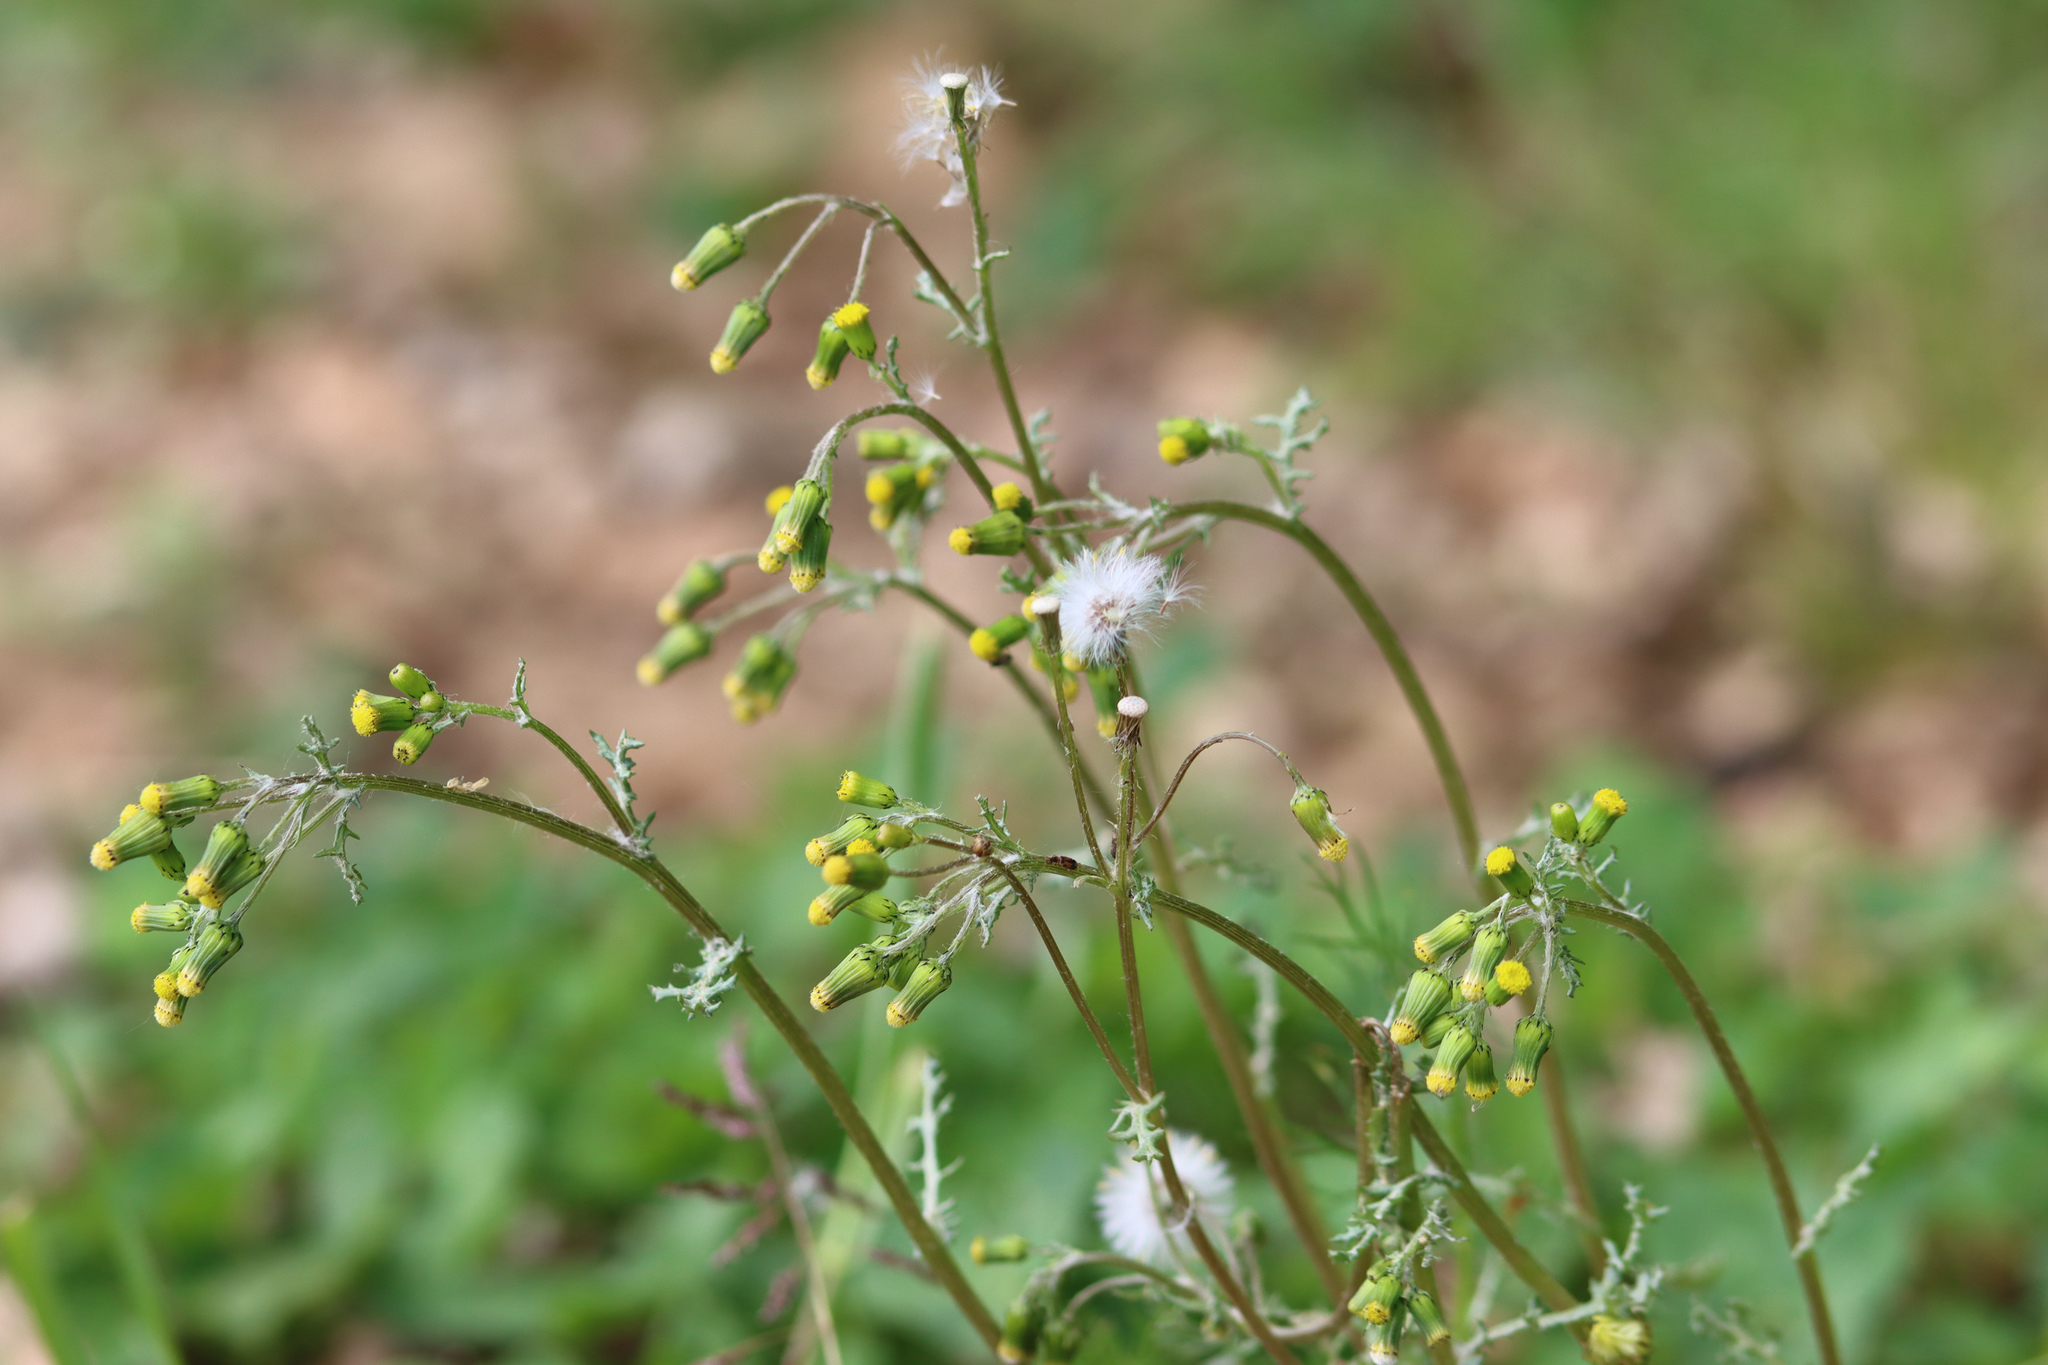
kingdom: Plantae
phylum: Tracheophyta
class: Magnoliopsida
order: Asterales
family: Asteraceae
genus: Senecio
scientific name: Senecio vulgaris
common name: Old-man-in-the-spring
